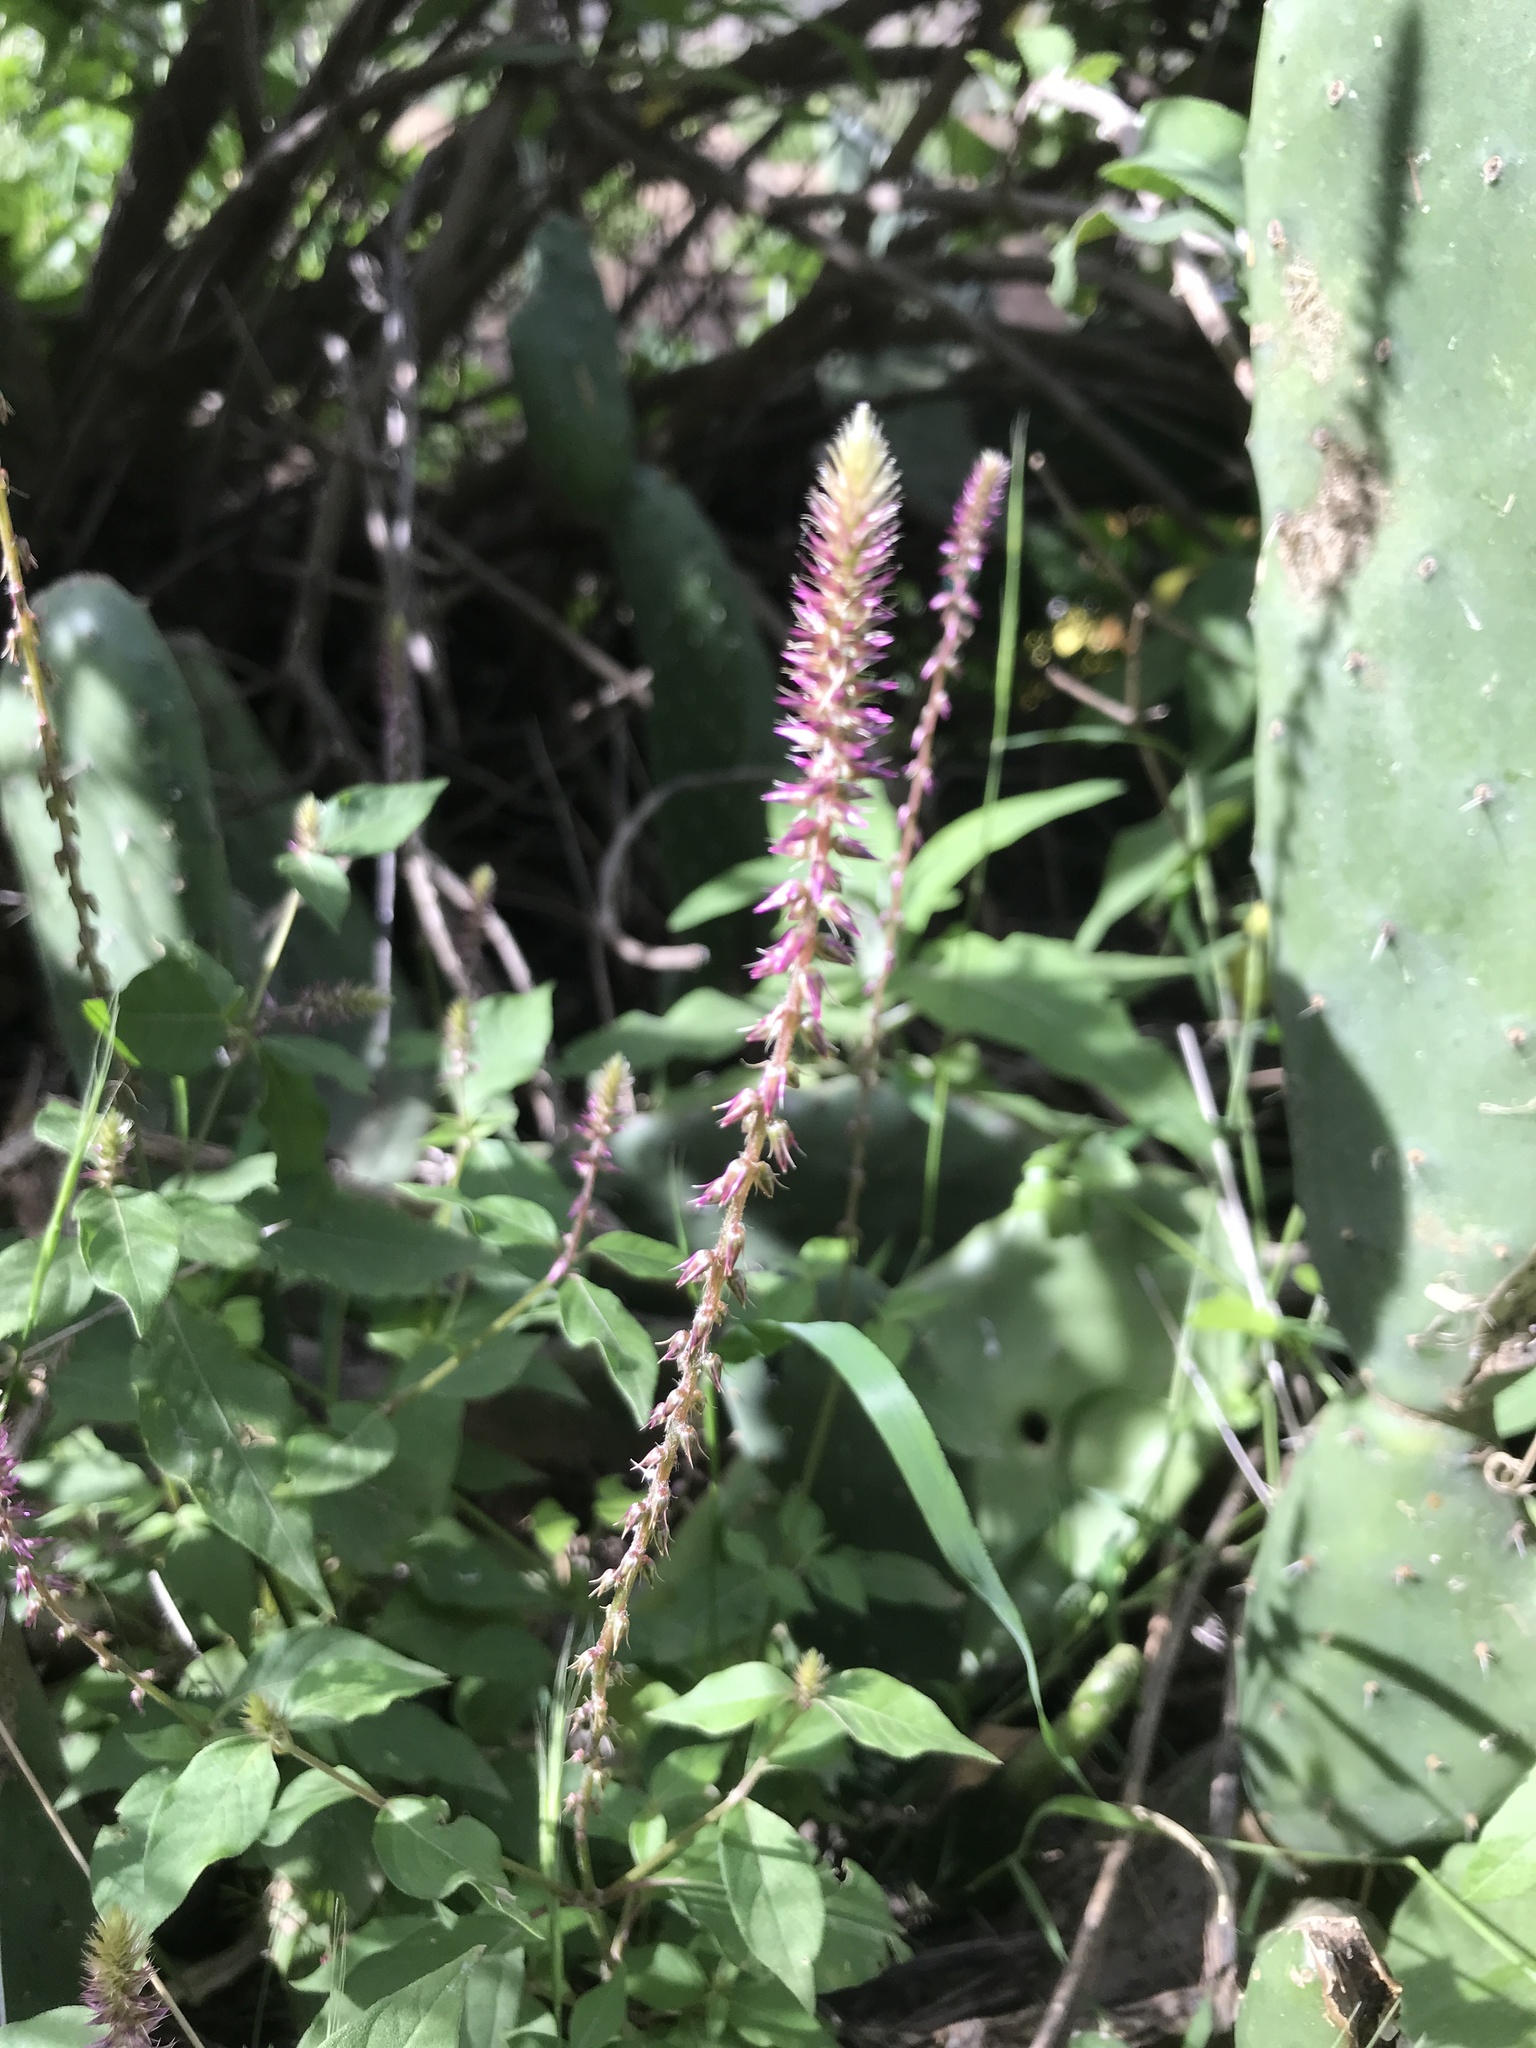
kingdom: Plantae
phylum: Tracheophyta
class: Magnoliopsida
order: Caryophyllales
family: Amaranthaceae
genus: Achyranthes
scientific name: Achyranthes aspera
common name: Devil's horsewhip
